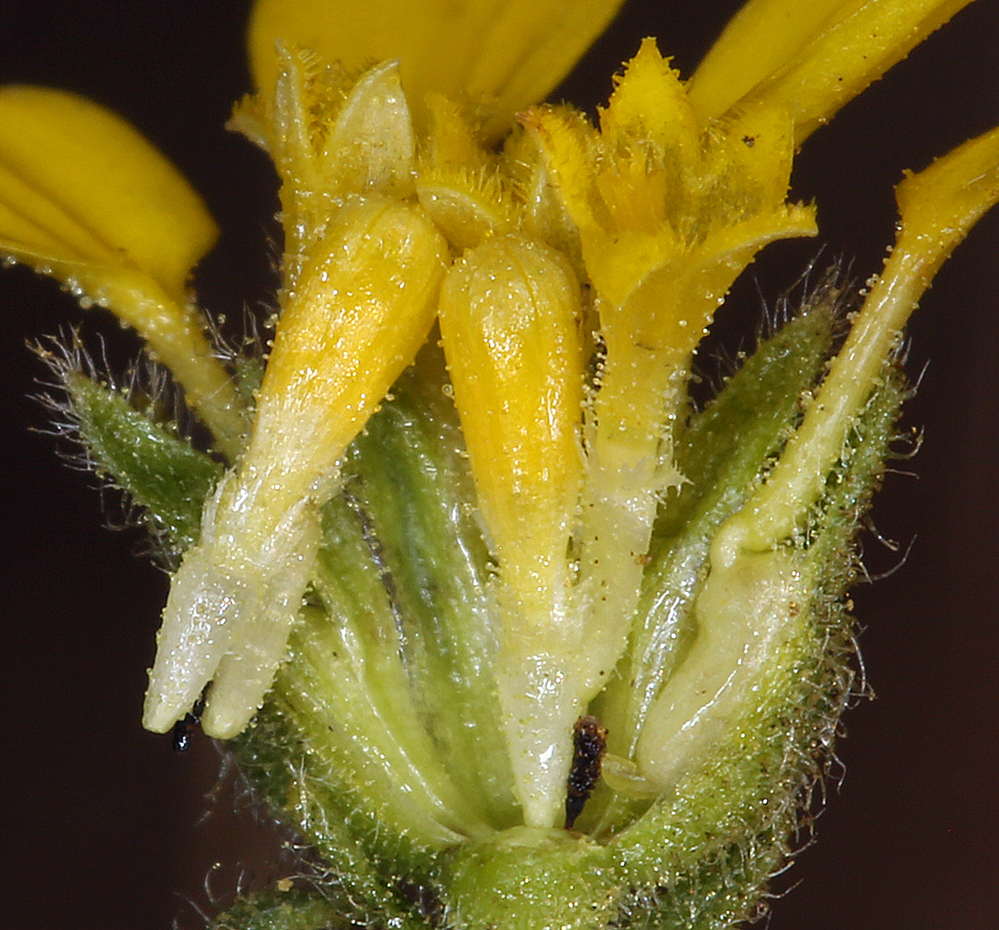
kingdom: Plantae
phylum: Tracheophyta
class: Magnoliopsida
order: Asterales
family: Asteraceae
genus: Deinandra
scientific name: Deinandra bacigalupii
